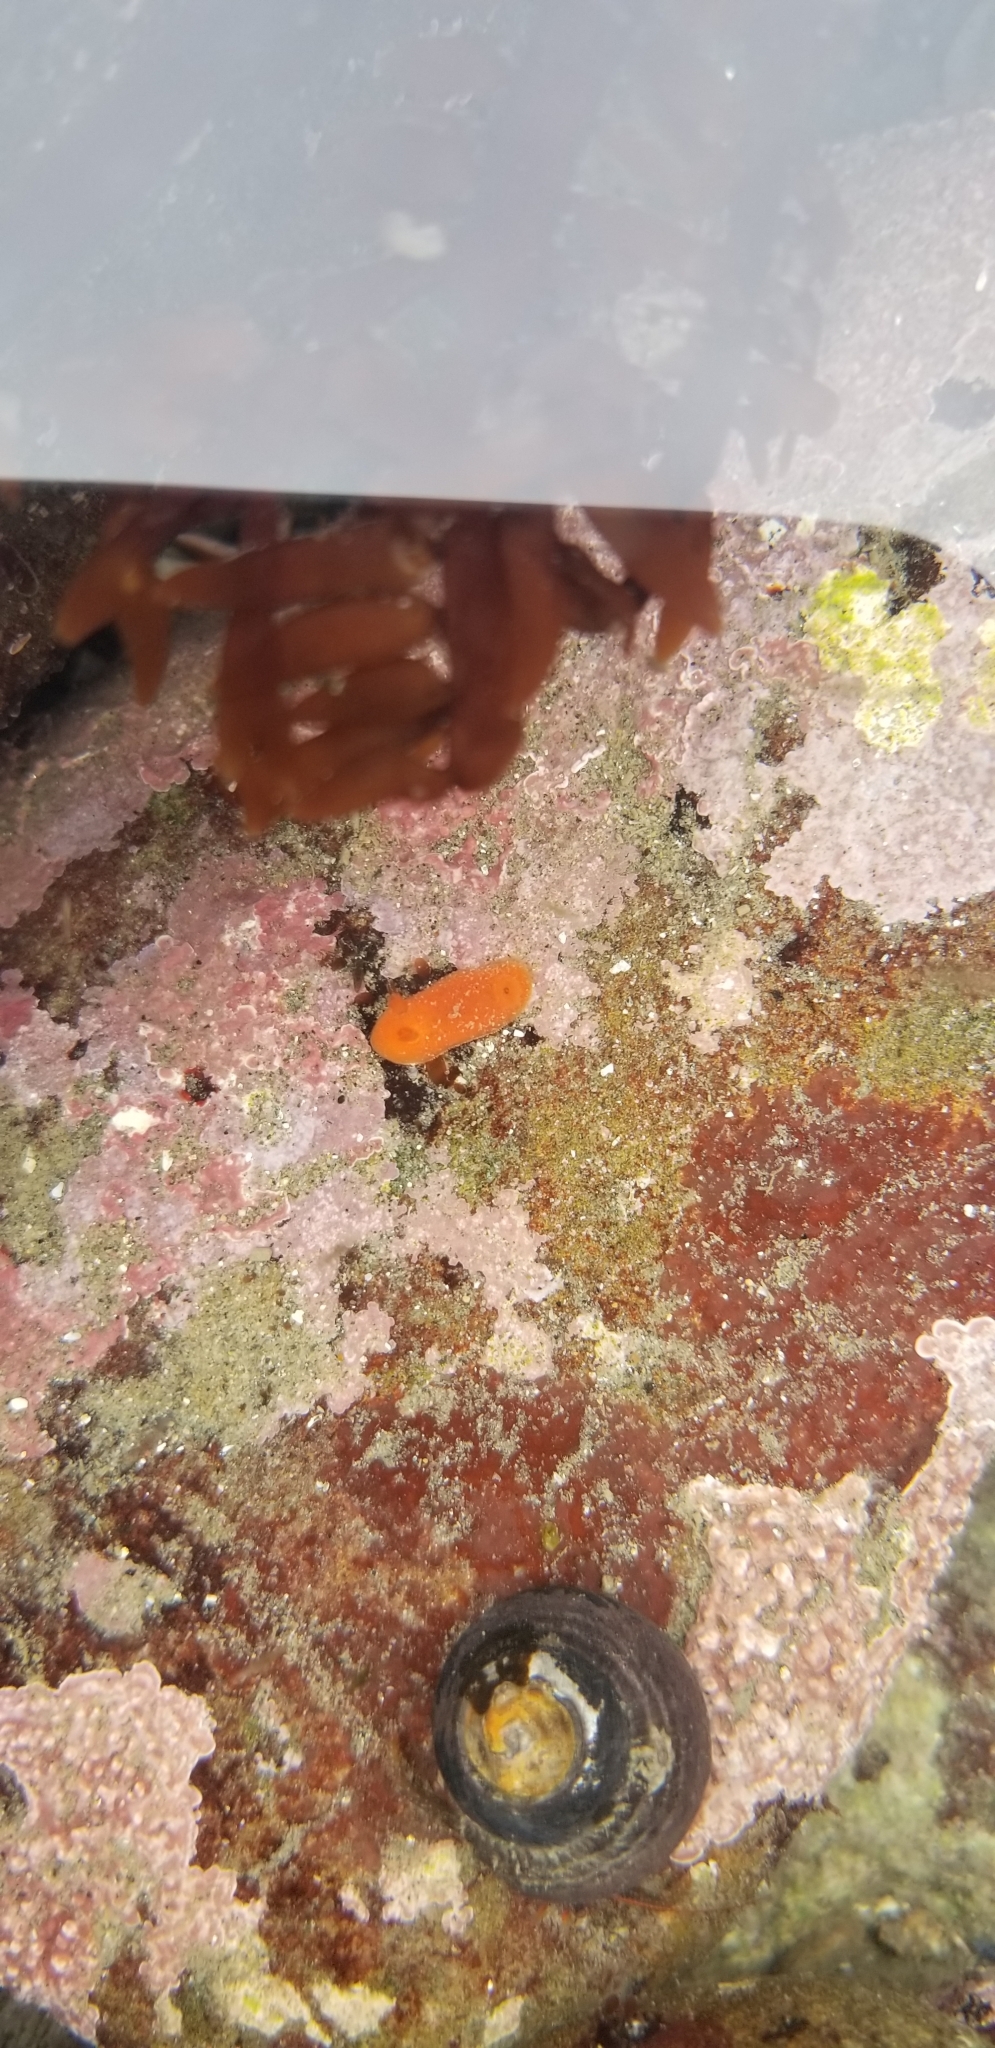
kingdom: Animalia
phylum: Mollusca
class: Gastropoda
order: Nudibranchia
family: Discodorididae
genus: Rostanga
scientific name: Rostanga pulchra
